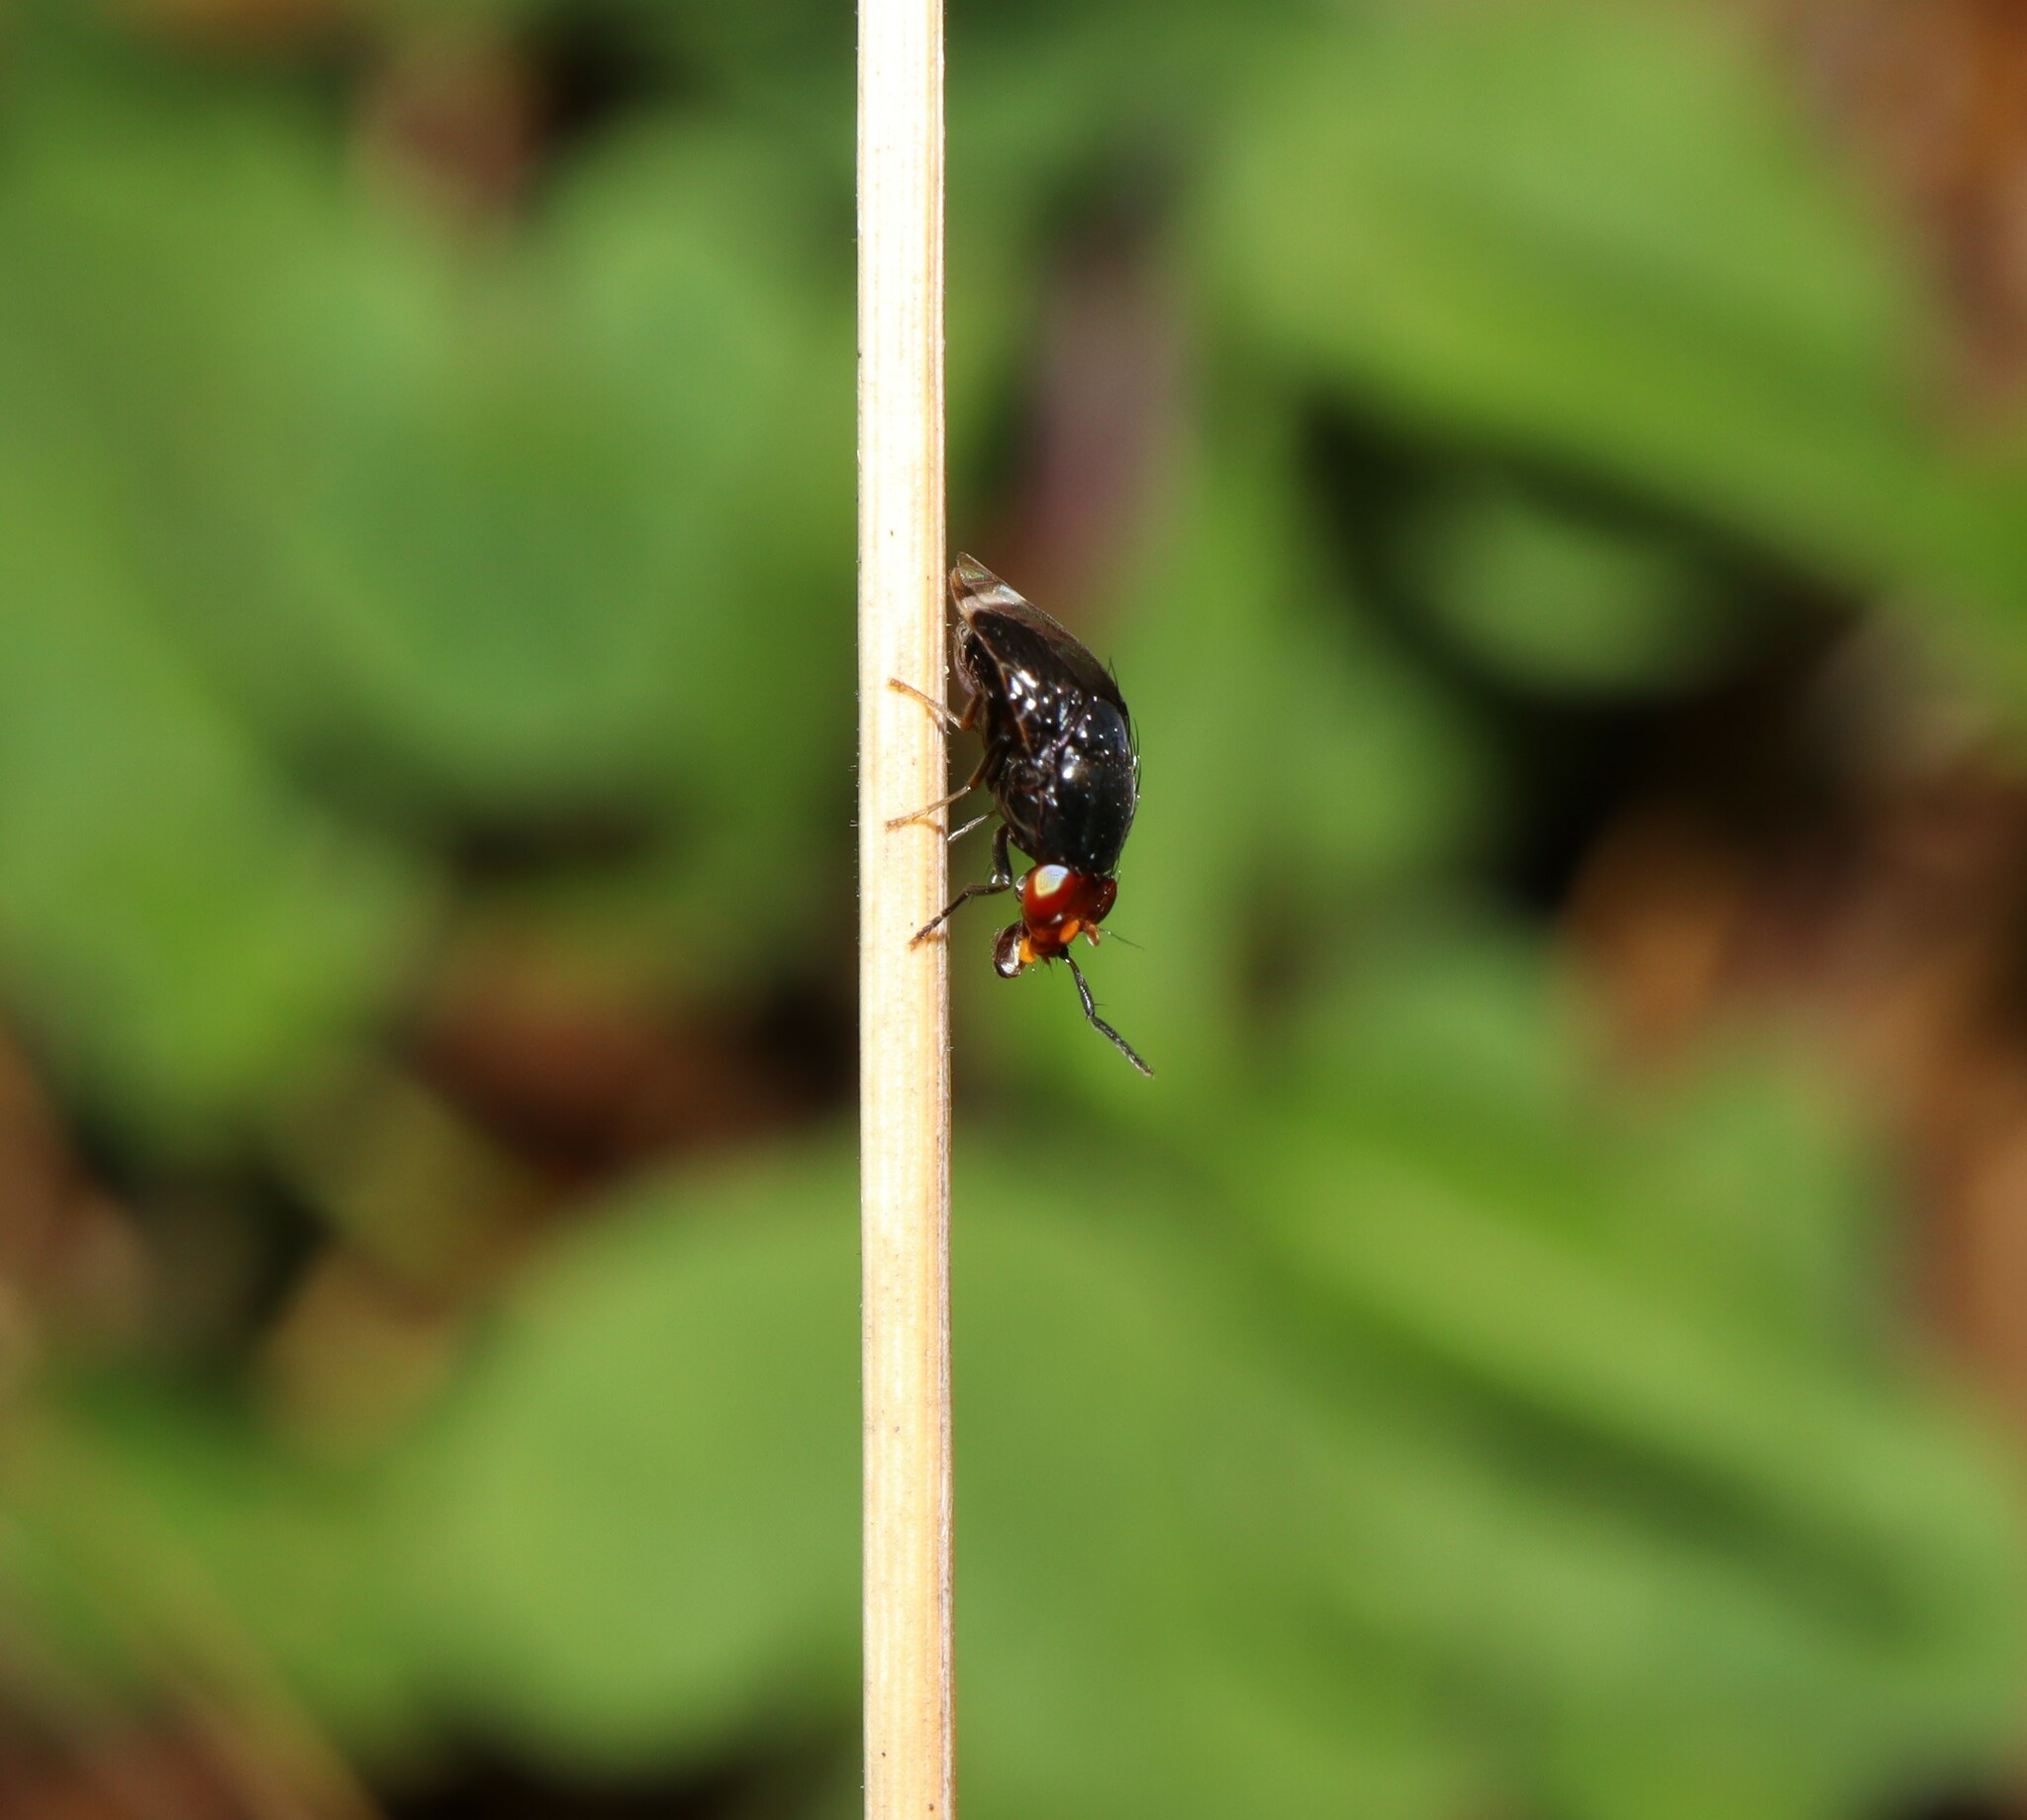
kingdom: Animalia
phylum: Arthropoda
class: Insecta
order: Diptera
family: Lauxaniidae
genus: Depressa
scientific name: Depressa atrata
